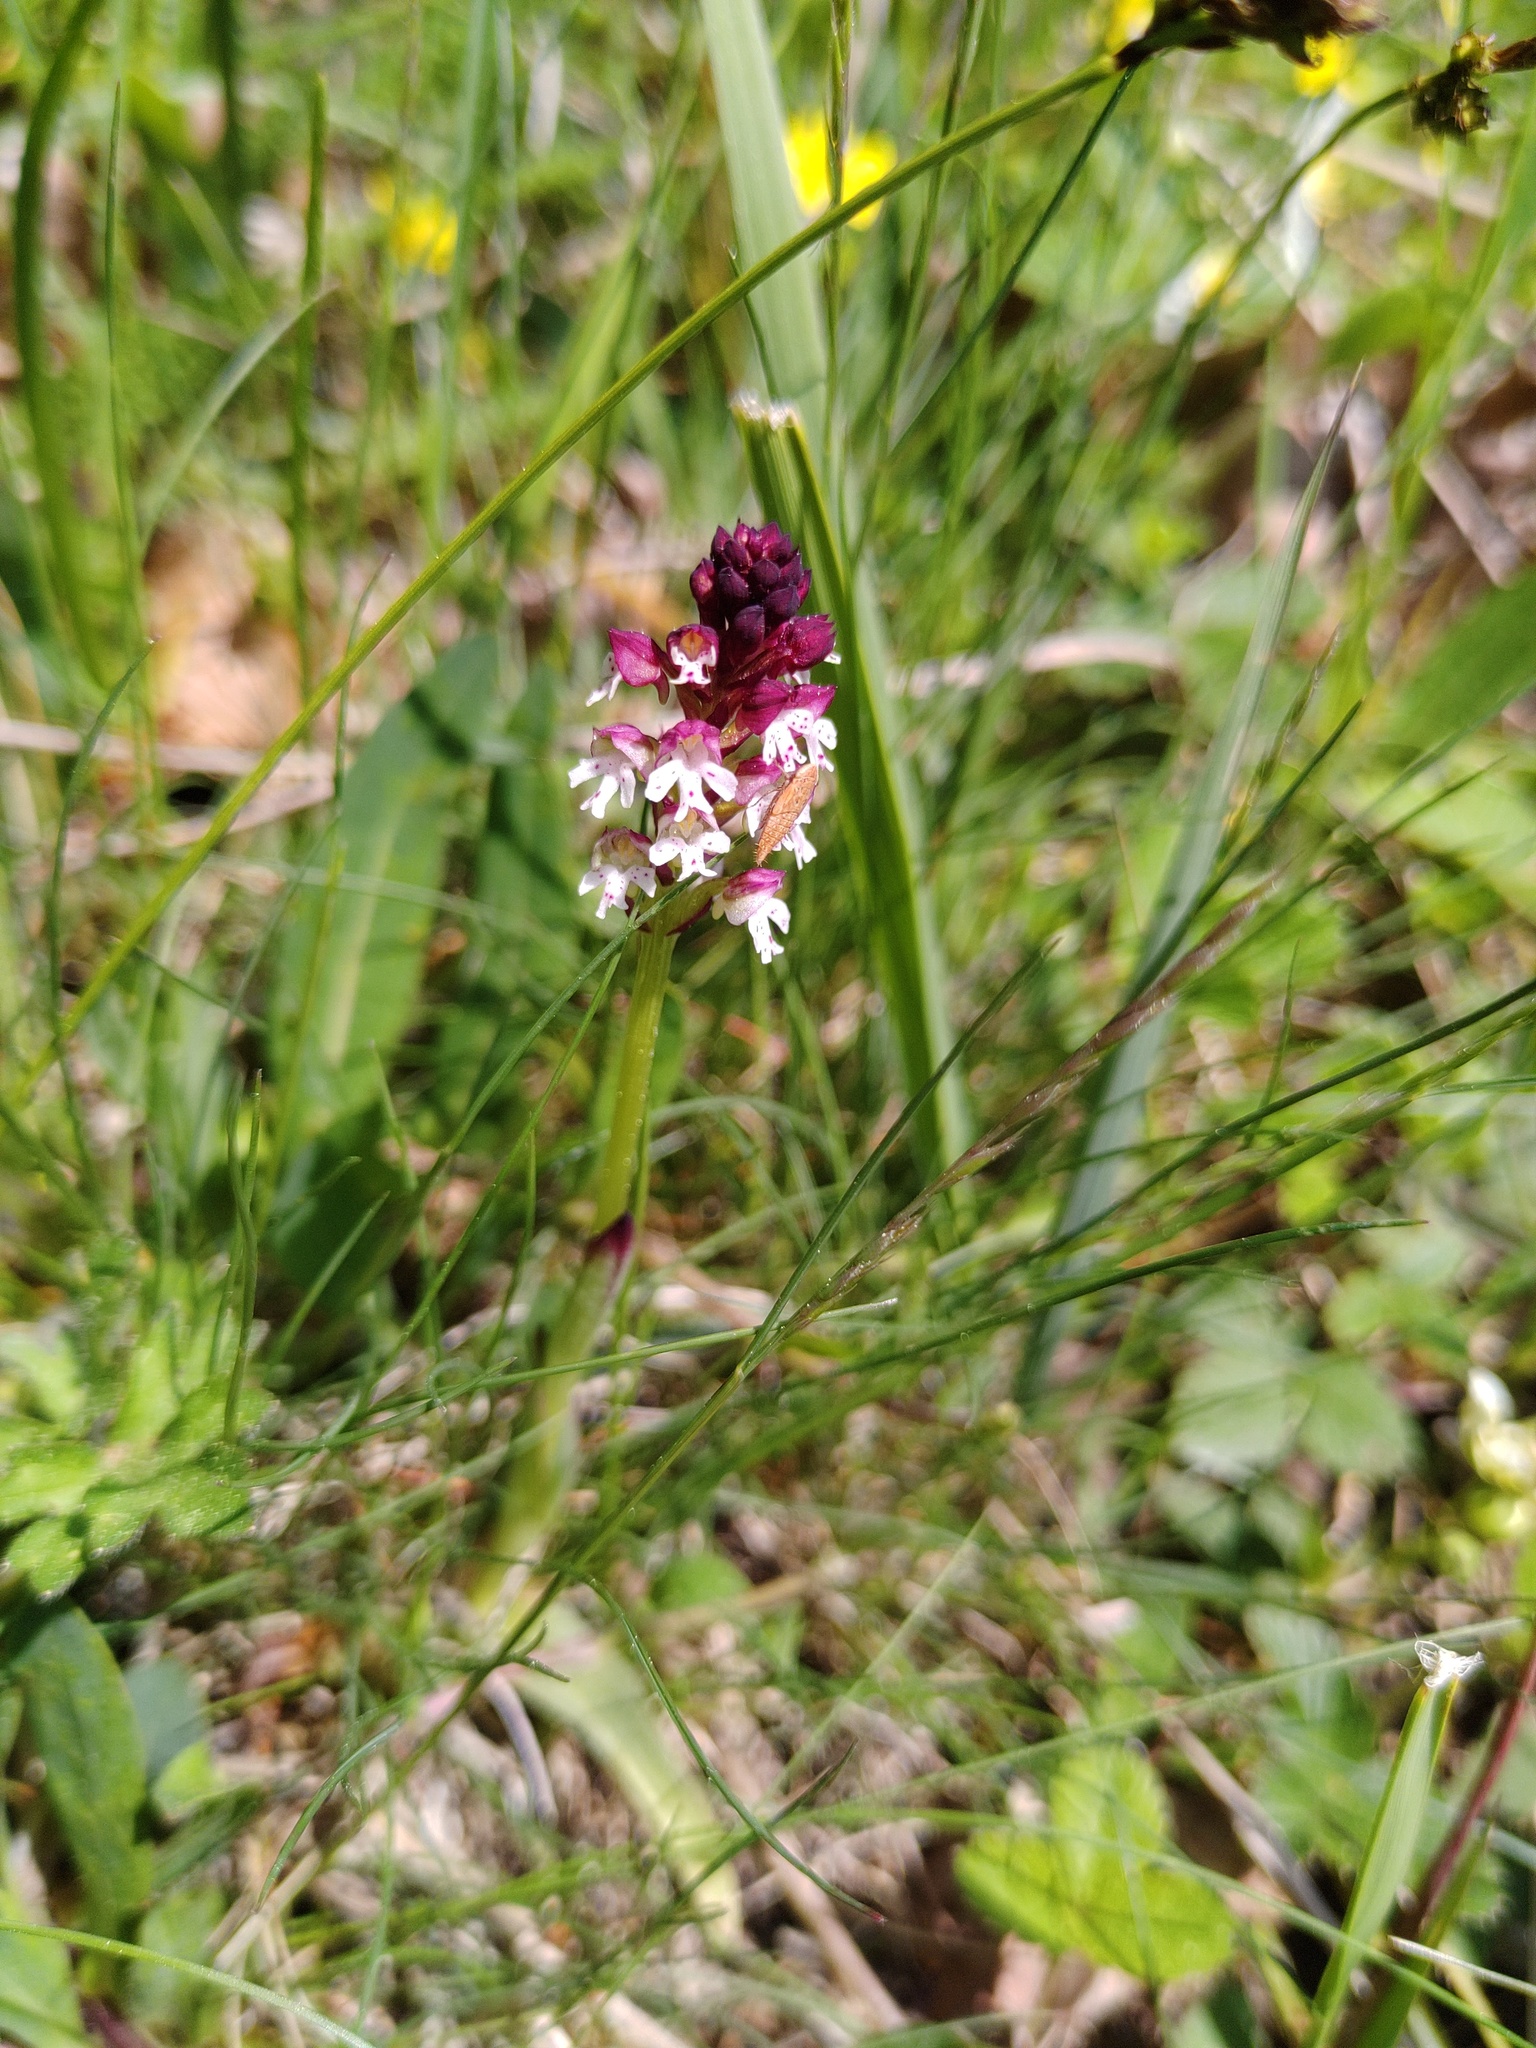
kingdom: Plantae
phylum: Tracheophyta
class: Liliopsida
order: Asparagales
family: Orchidaceae
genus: Neotinea
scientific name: Neotinea ustulata
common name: Burnt orchid
